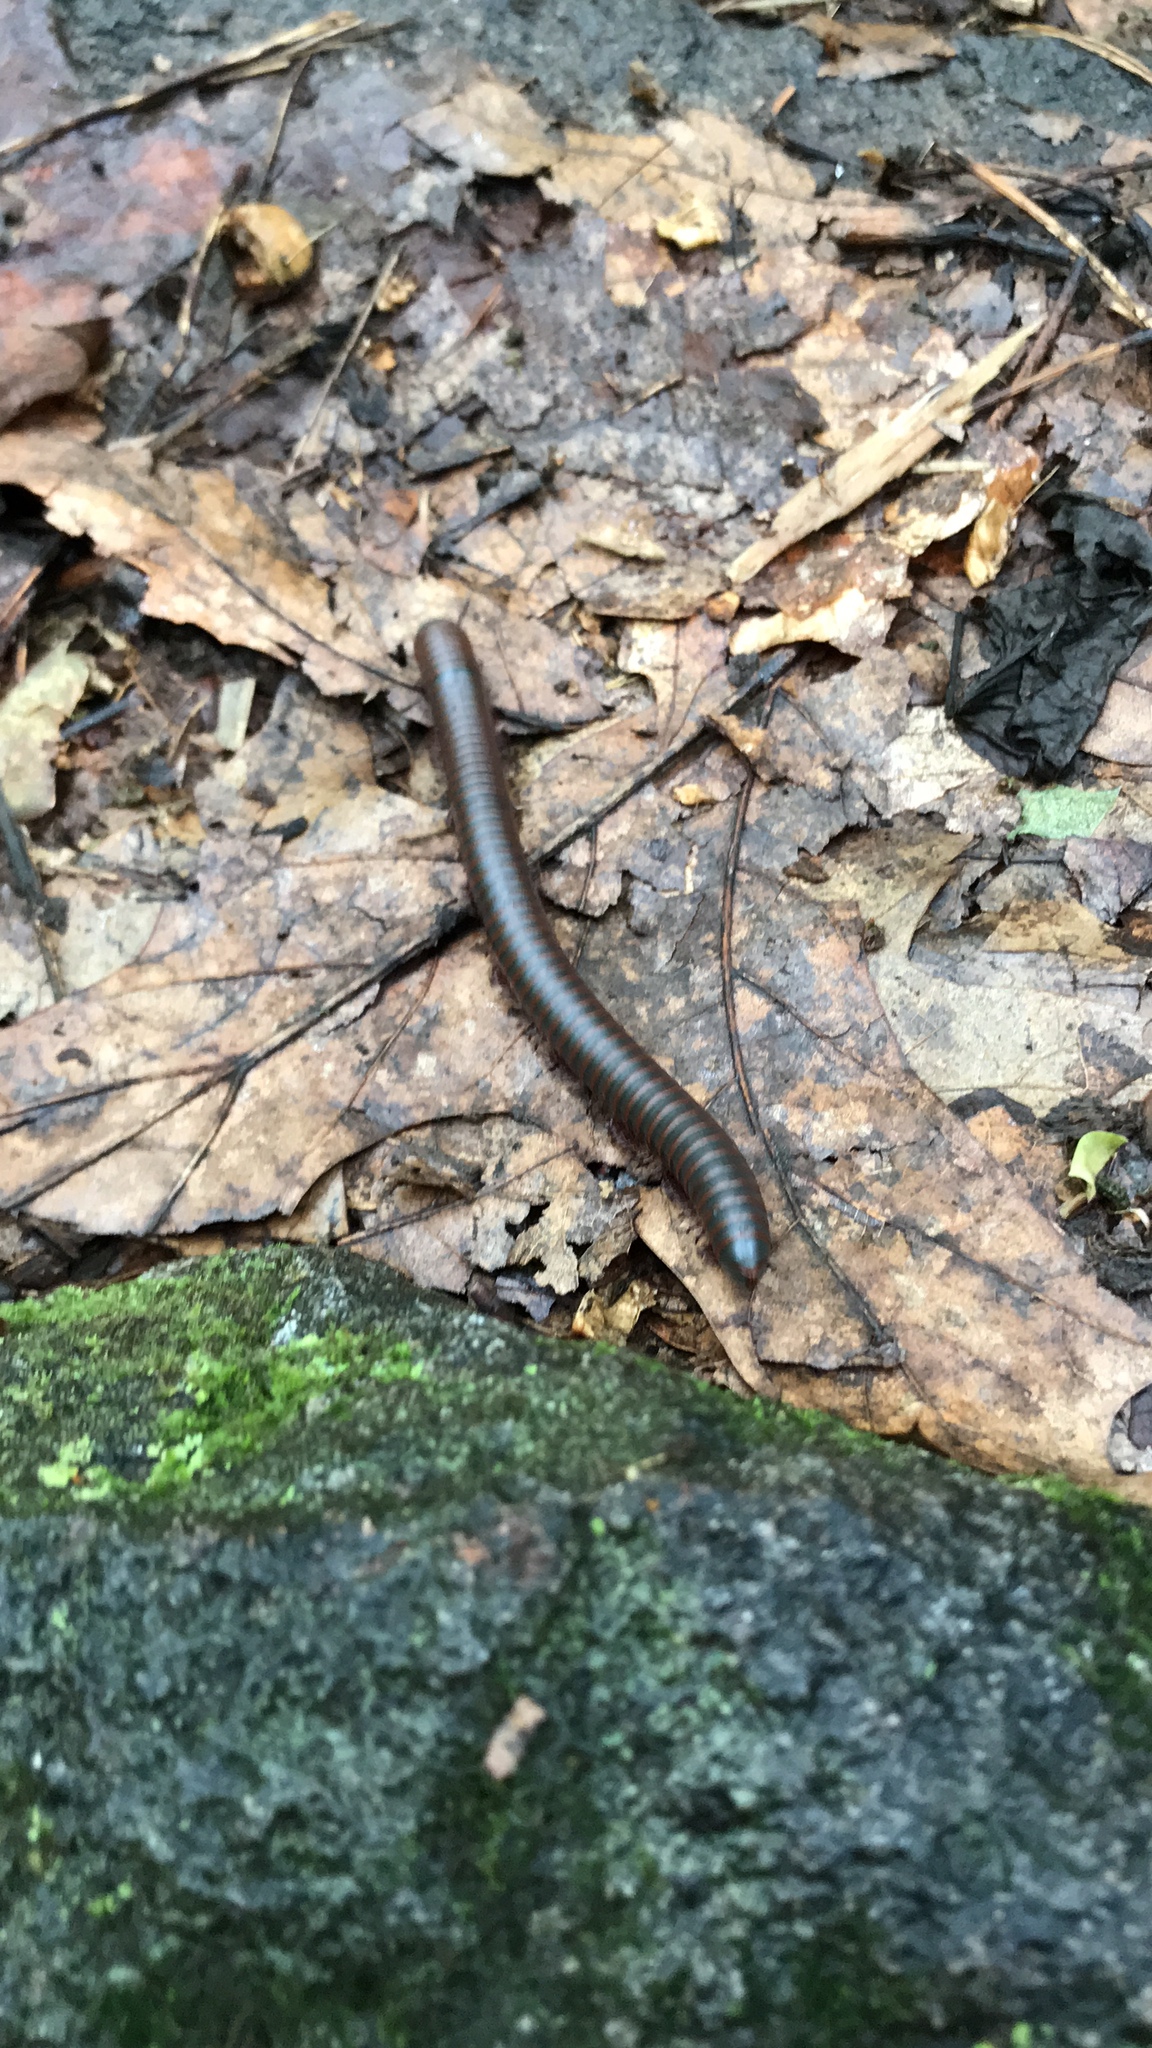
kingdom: Animalia
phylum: Arthropoda
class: Diplopoda
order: Spirobolida
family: Spirobolidae
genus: Narceus
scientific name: Narceus
